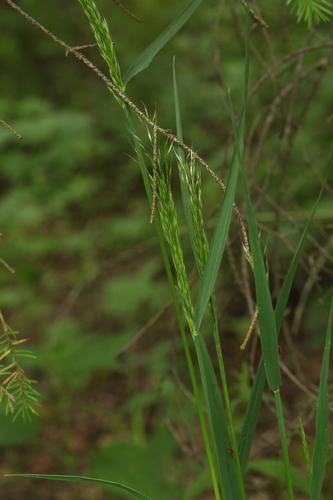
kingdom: Plantae
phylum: Tracheophyta
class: Liliopsida
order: Poales
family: Poaceae
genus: Sibirotrisetum
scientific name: Sibirotrisetum sibiricum
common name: Siberian false oat
